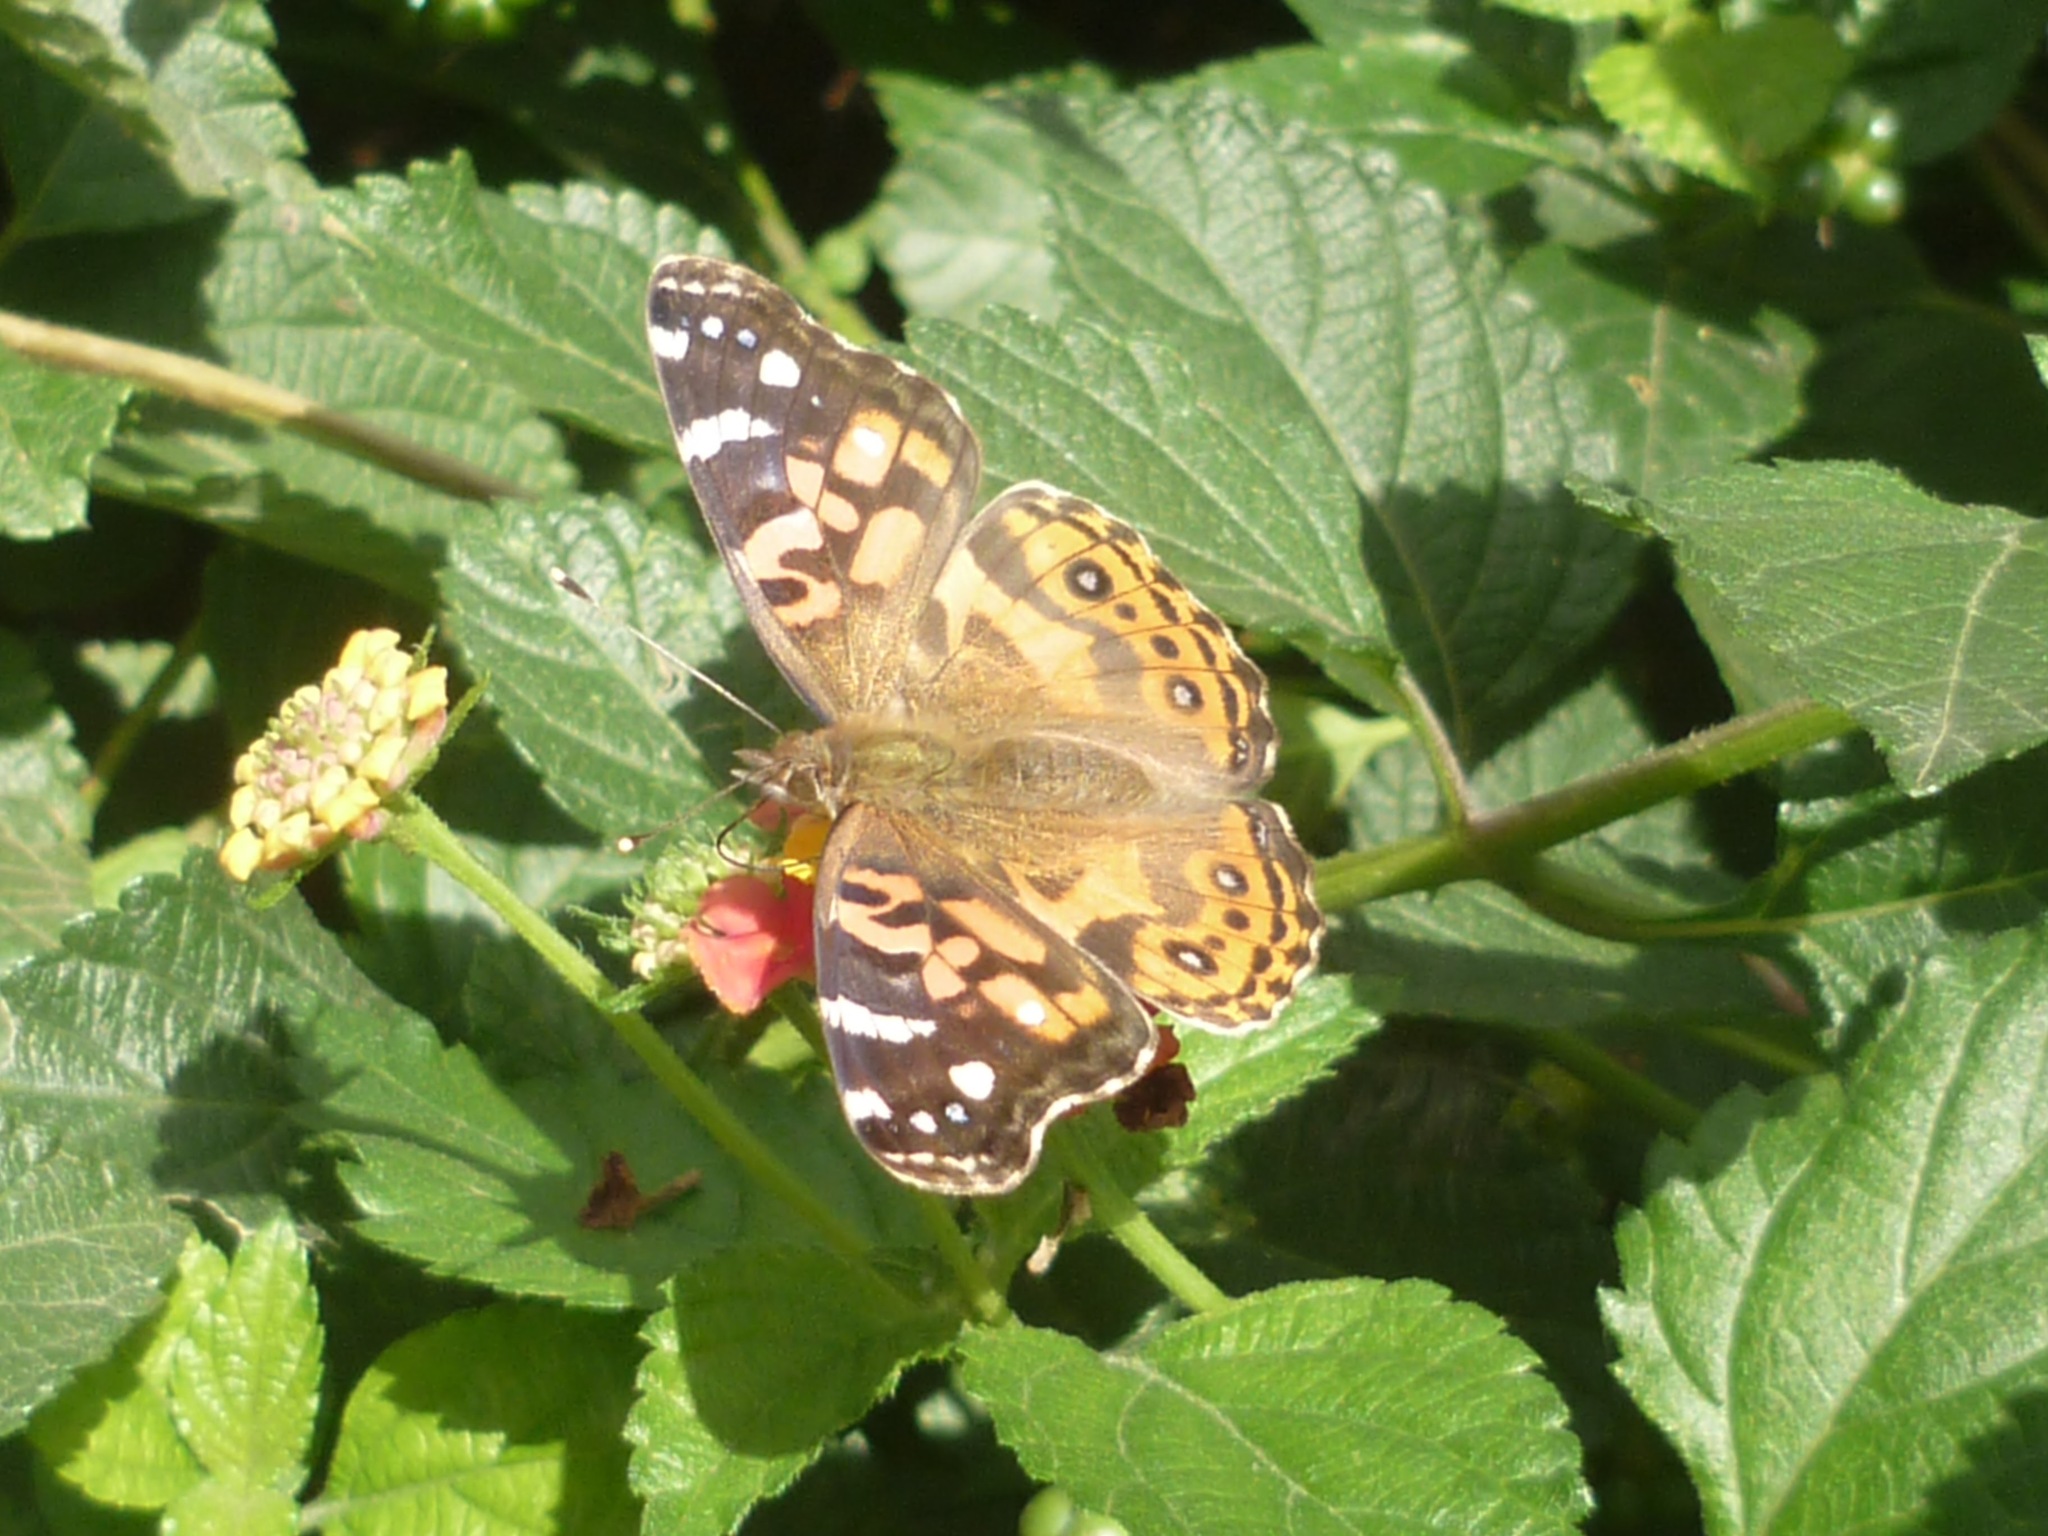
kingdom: Animalia
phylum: Arthropoda
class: Insecta
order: Lepidoptera
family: Nymphalidae
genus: Vanessa
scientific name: Vanessa braziliensis
